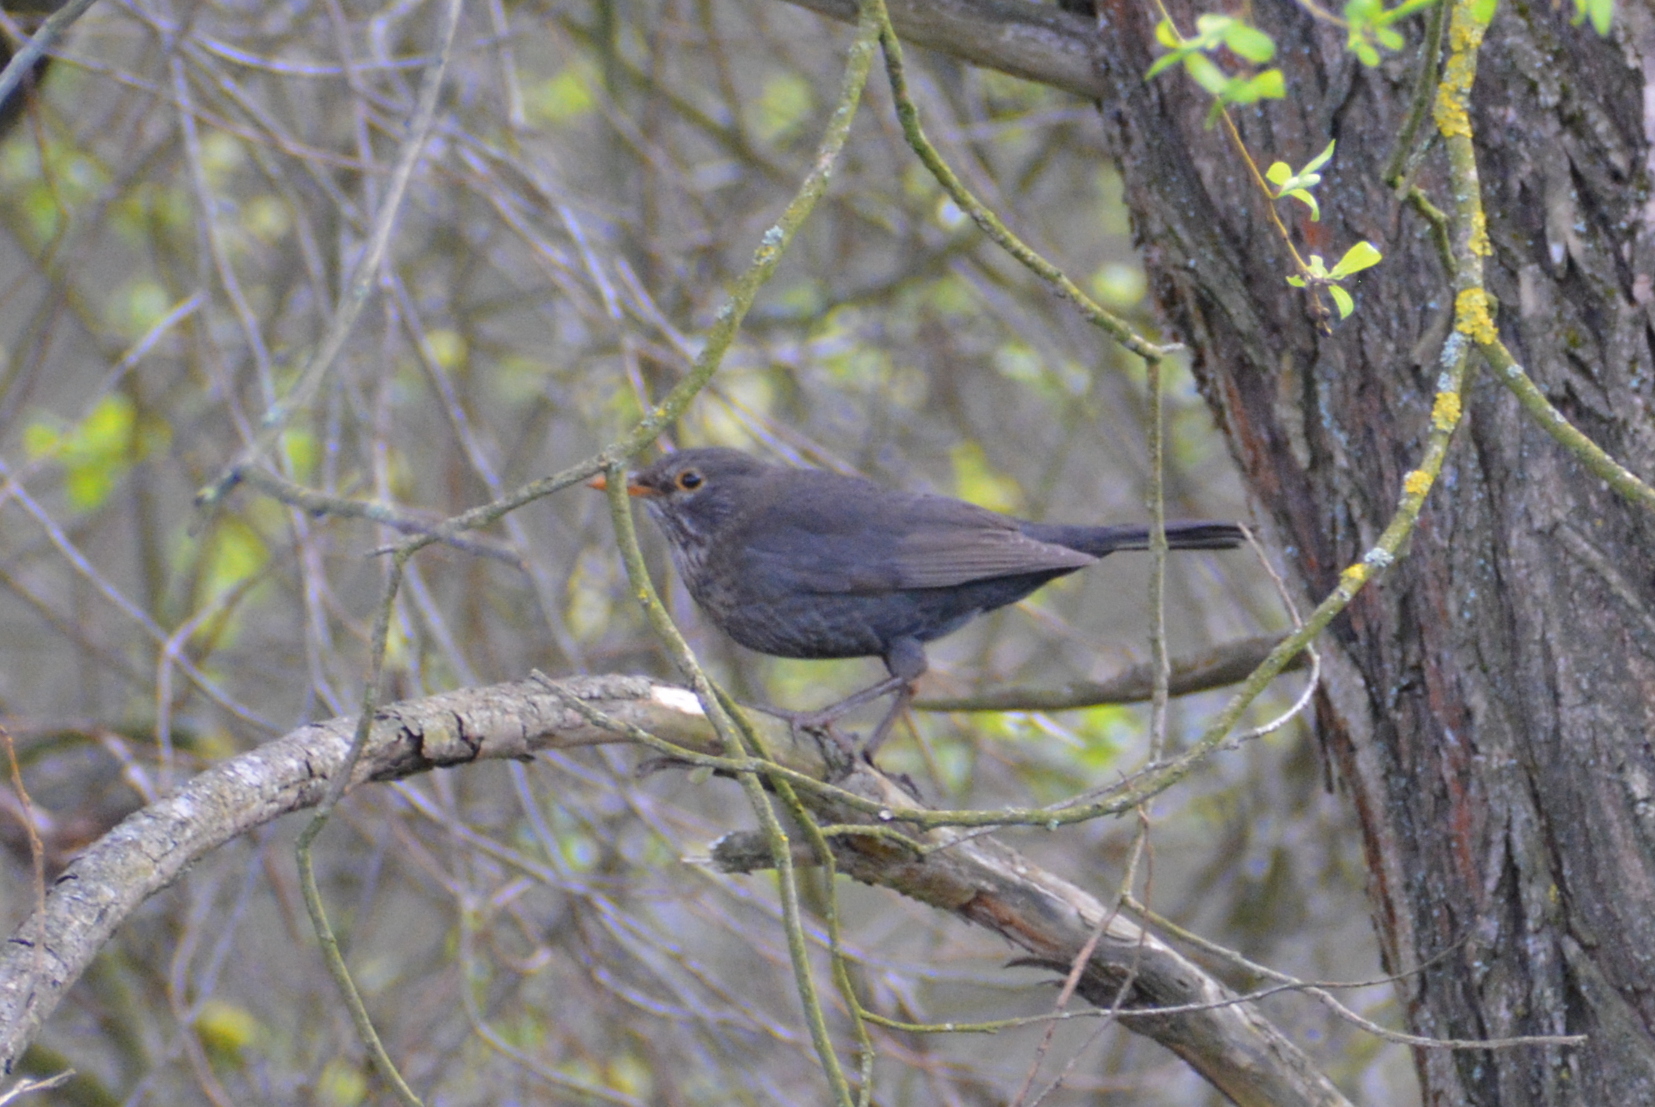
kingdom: Animalia
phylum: Chordata
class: Aves
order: Passeriformes
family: Turdidae
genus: Turdus
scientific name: Turdus merula
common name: Common blackbird
